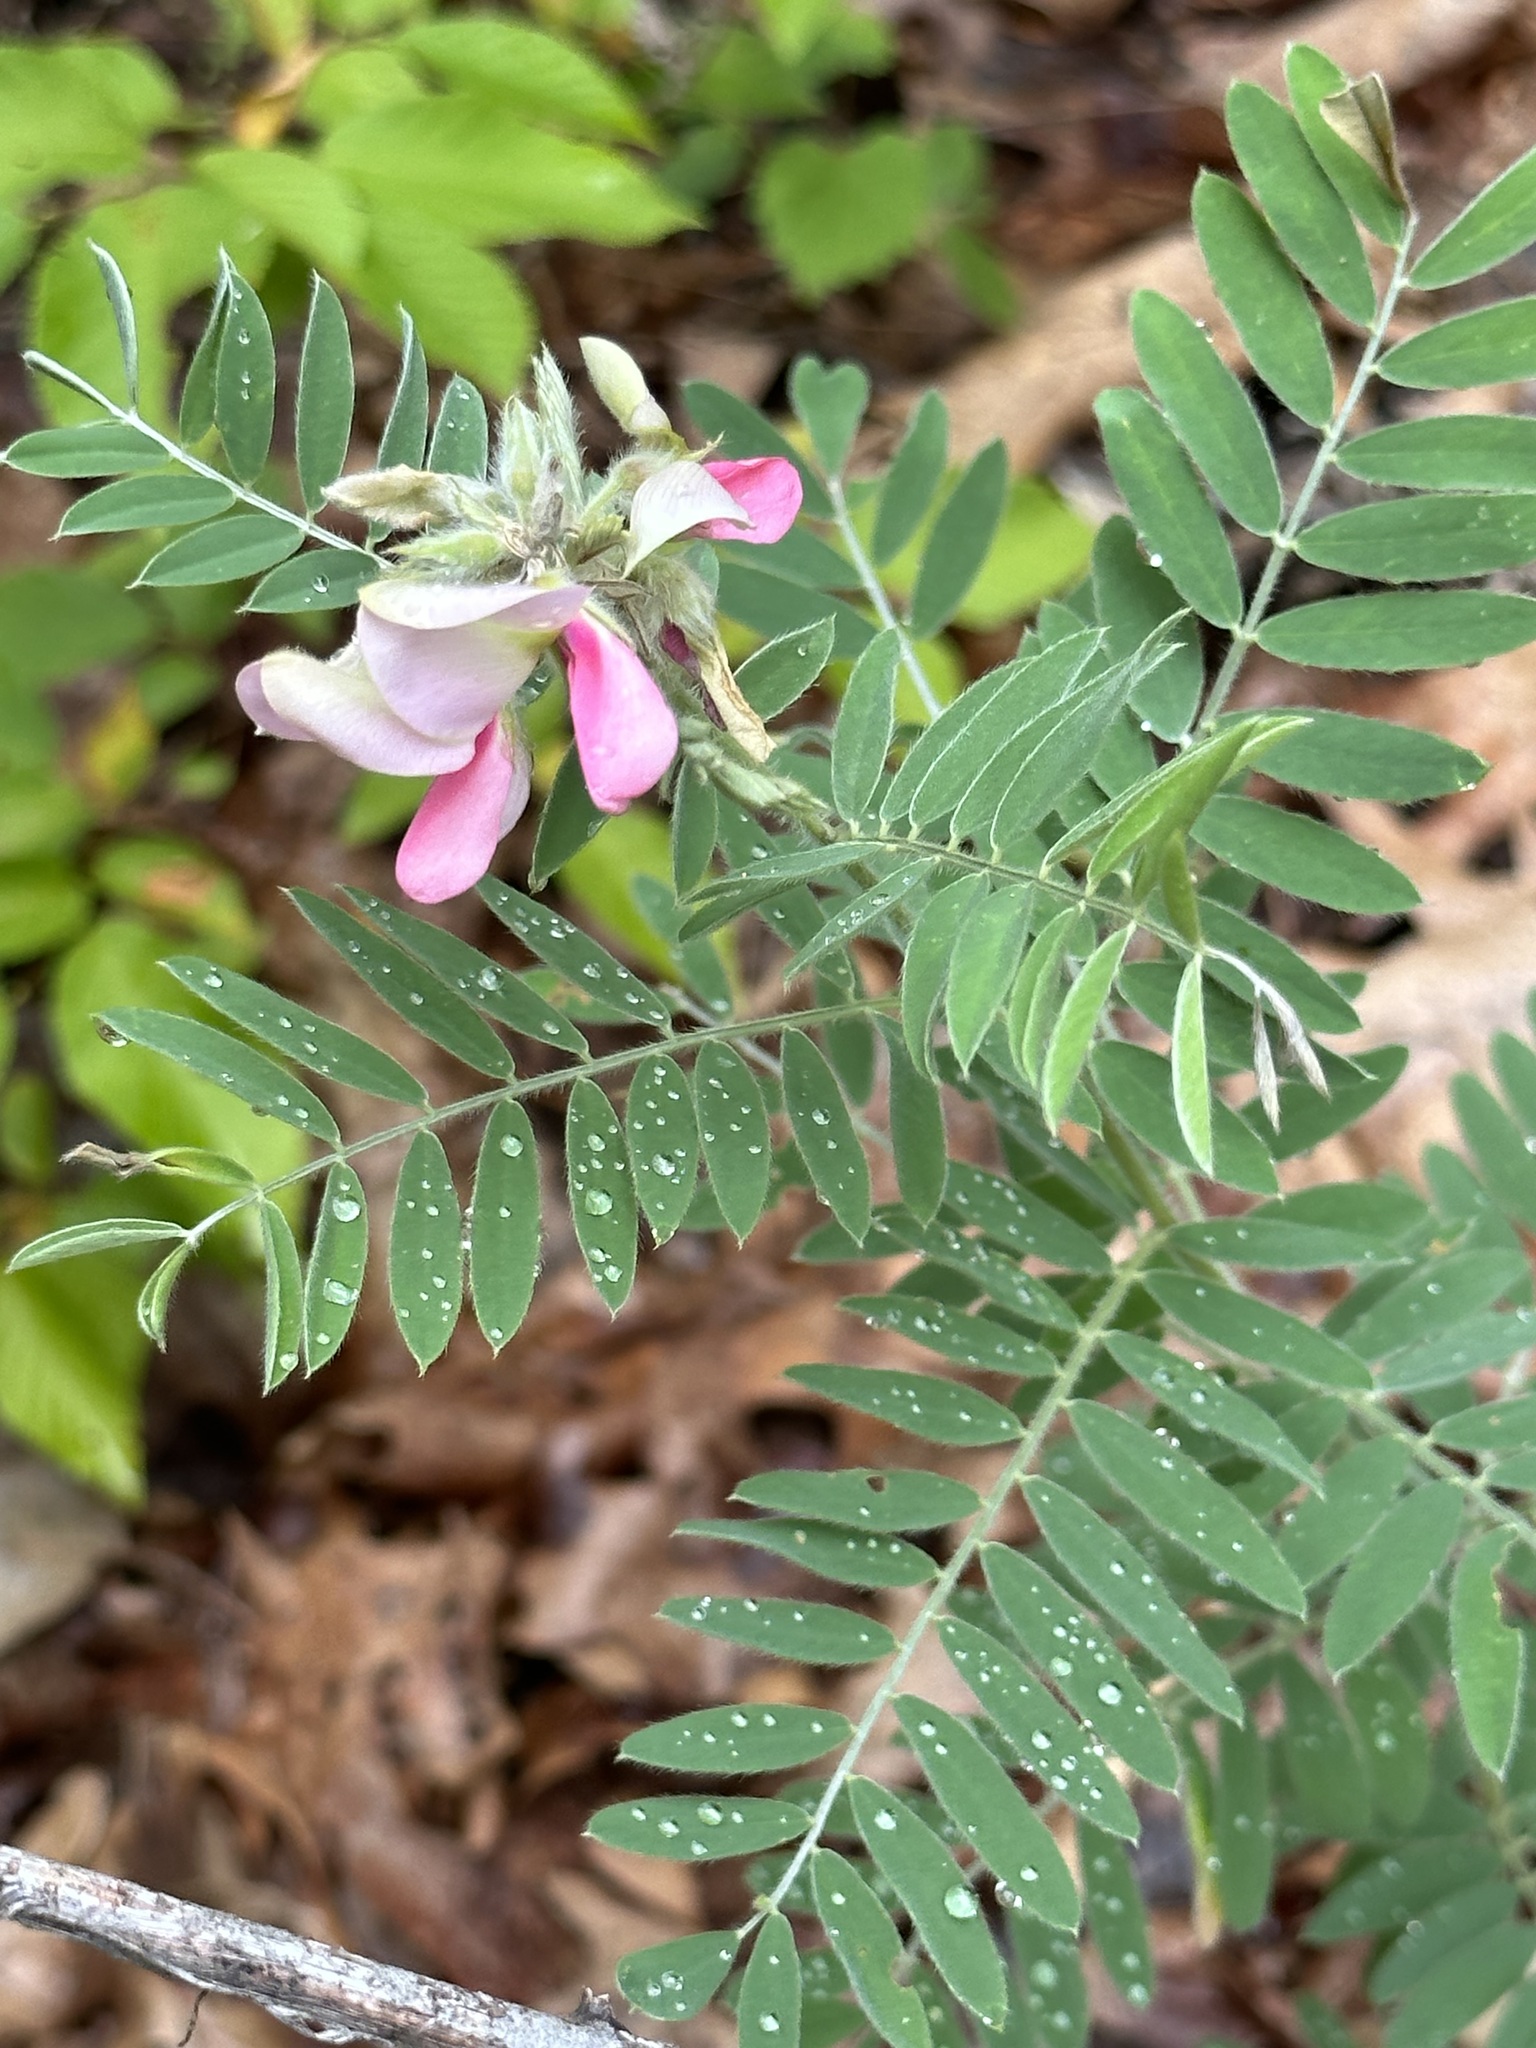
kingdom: Plantae
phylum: Tracheophyta
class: Magnoliopsida
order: Fabales
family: Fabaceae
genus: Tephrosia
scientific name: Tephrosia virginiana
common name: Rabbit-pea
